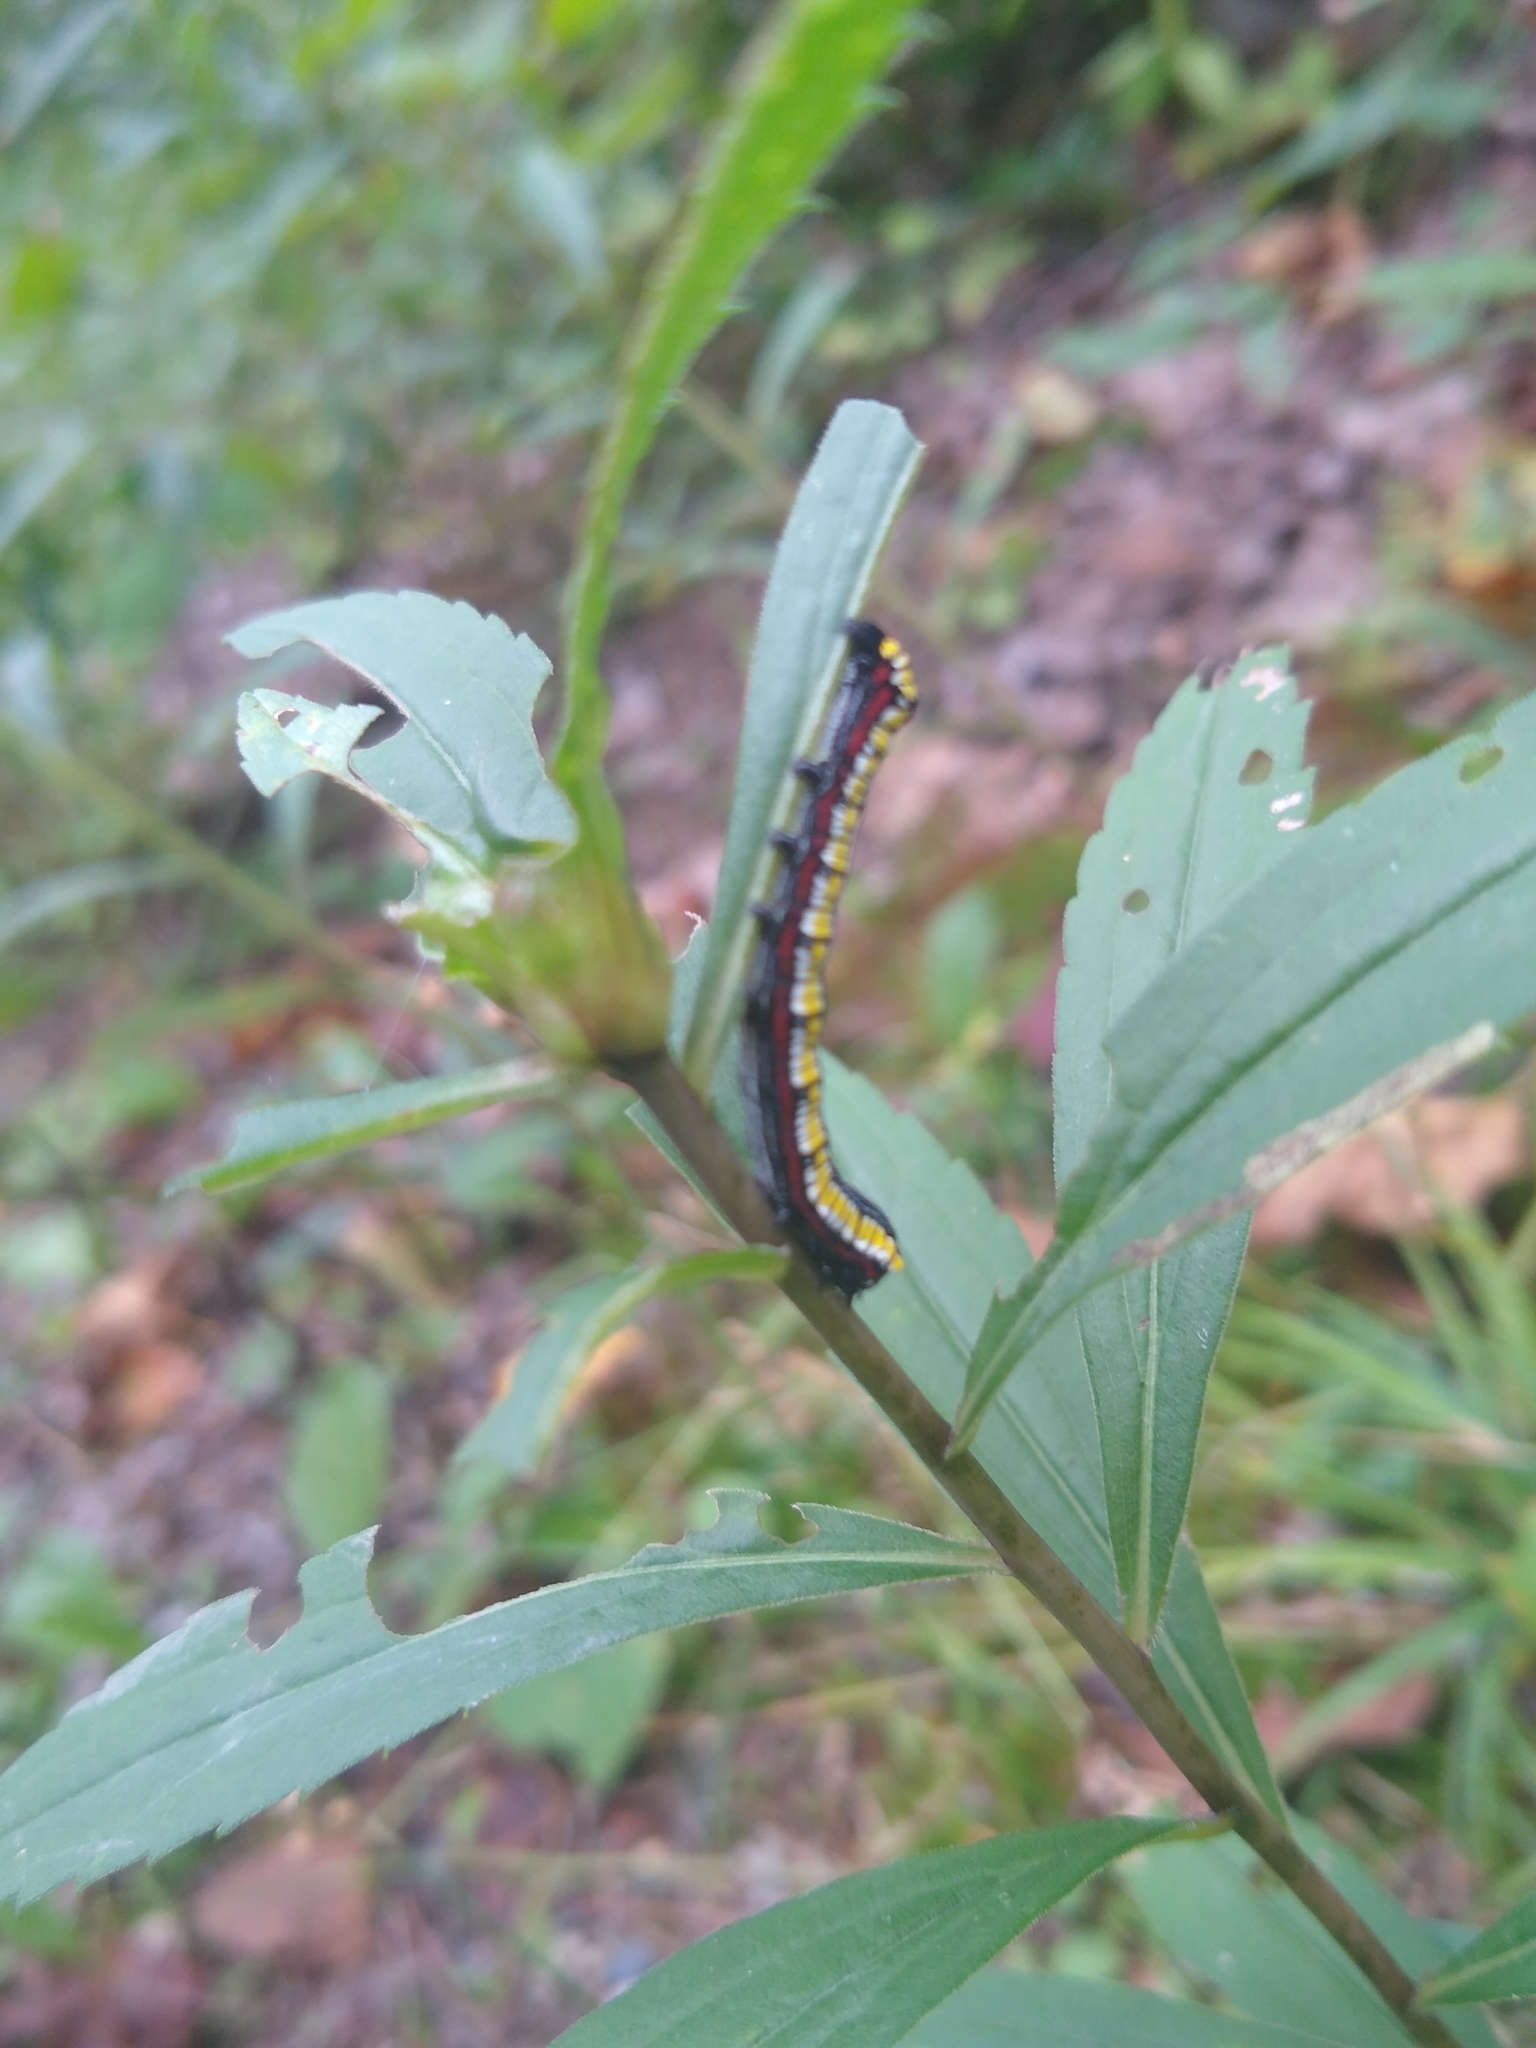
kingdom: Animalia
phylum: Arthropoda
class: Insecta
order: Lepidoptera
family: Noctuidae
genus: Cucullia
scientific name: Cucullia convexipennis
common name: Brown-hooded owlet
